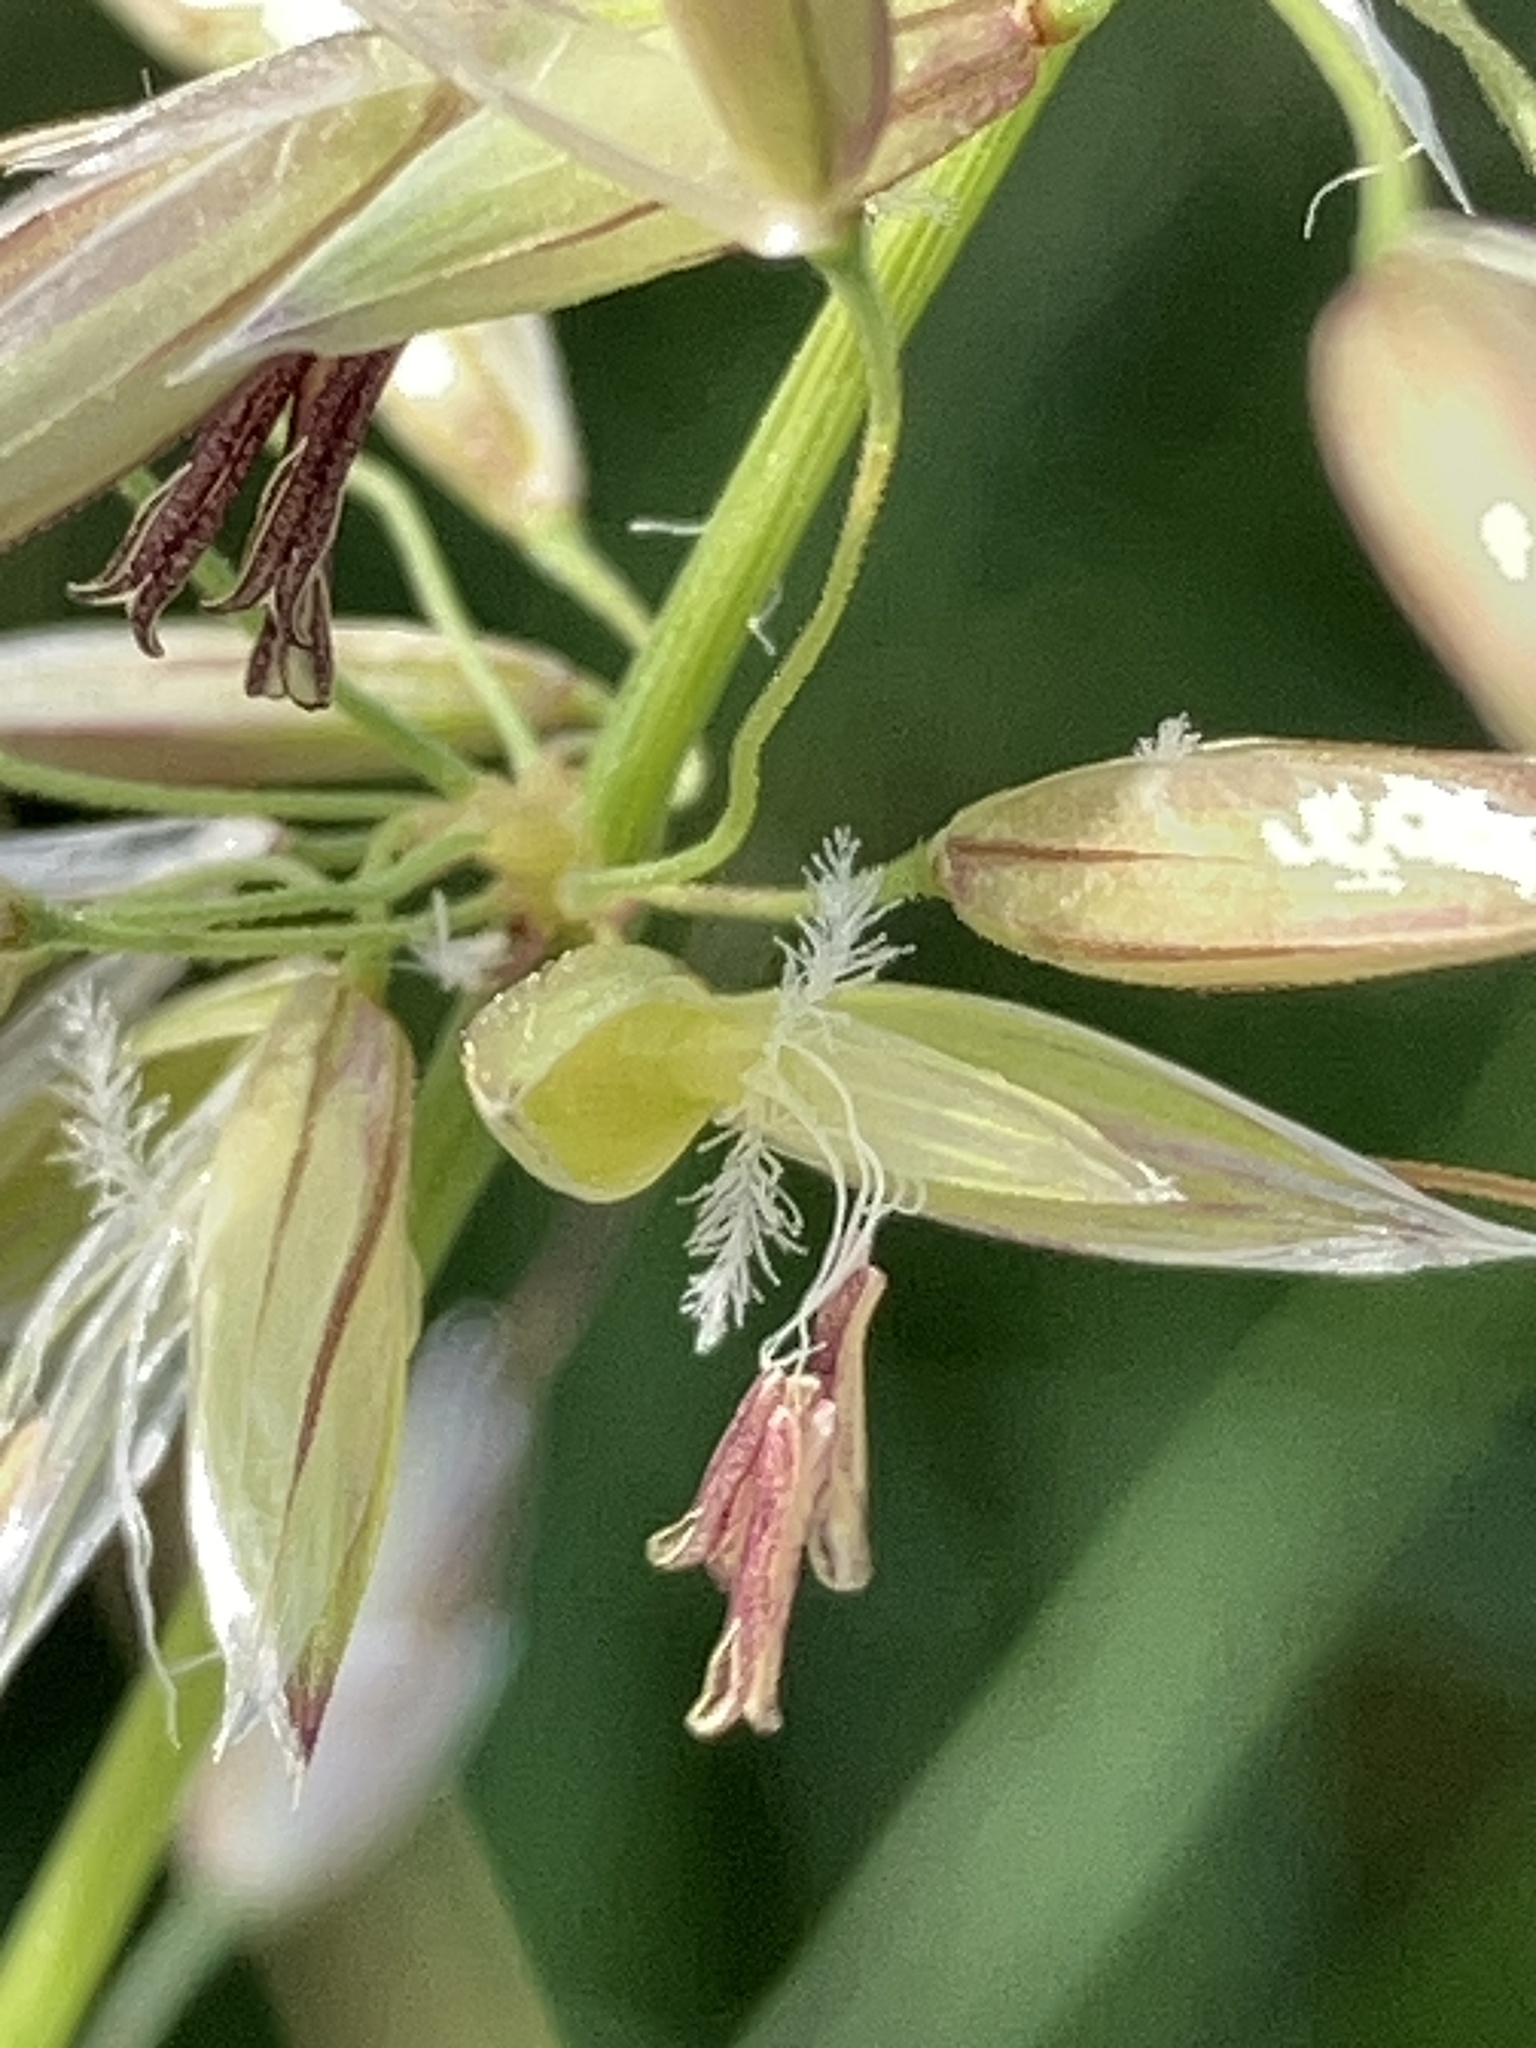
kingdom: Plantae
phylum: Tracheophyta
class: Liliopsida
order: Poales
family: Poaceae
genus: Arrhenatherum
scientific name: Arrhenatherum elatius
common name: Tall oatgrass
